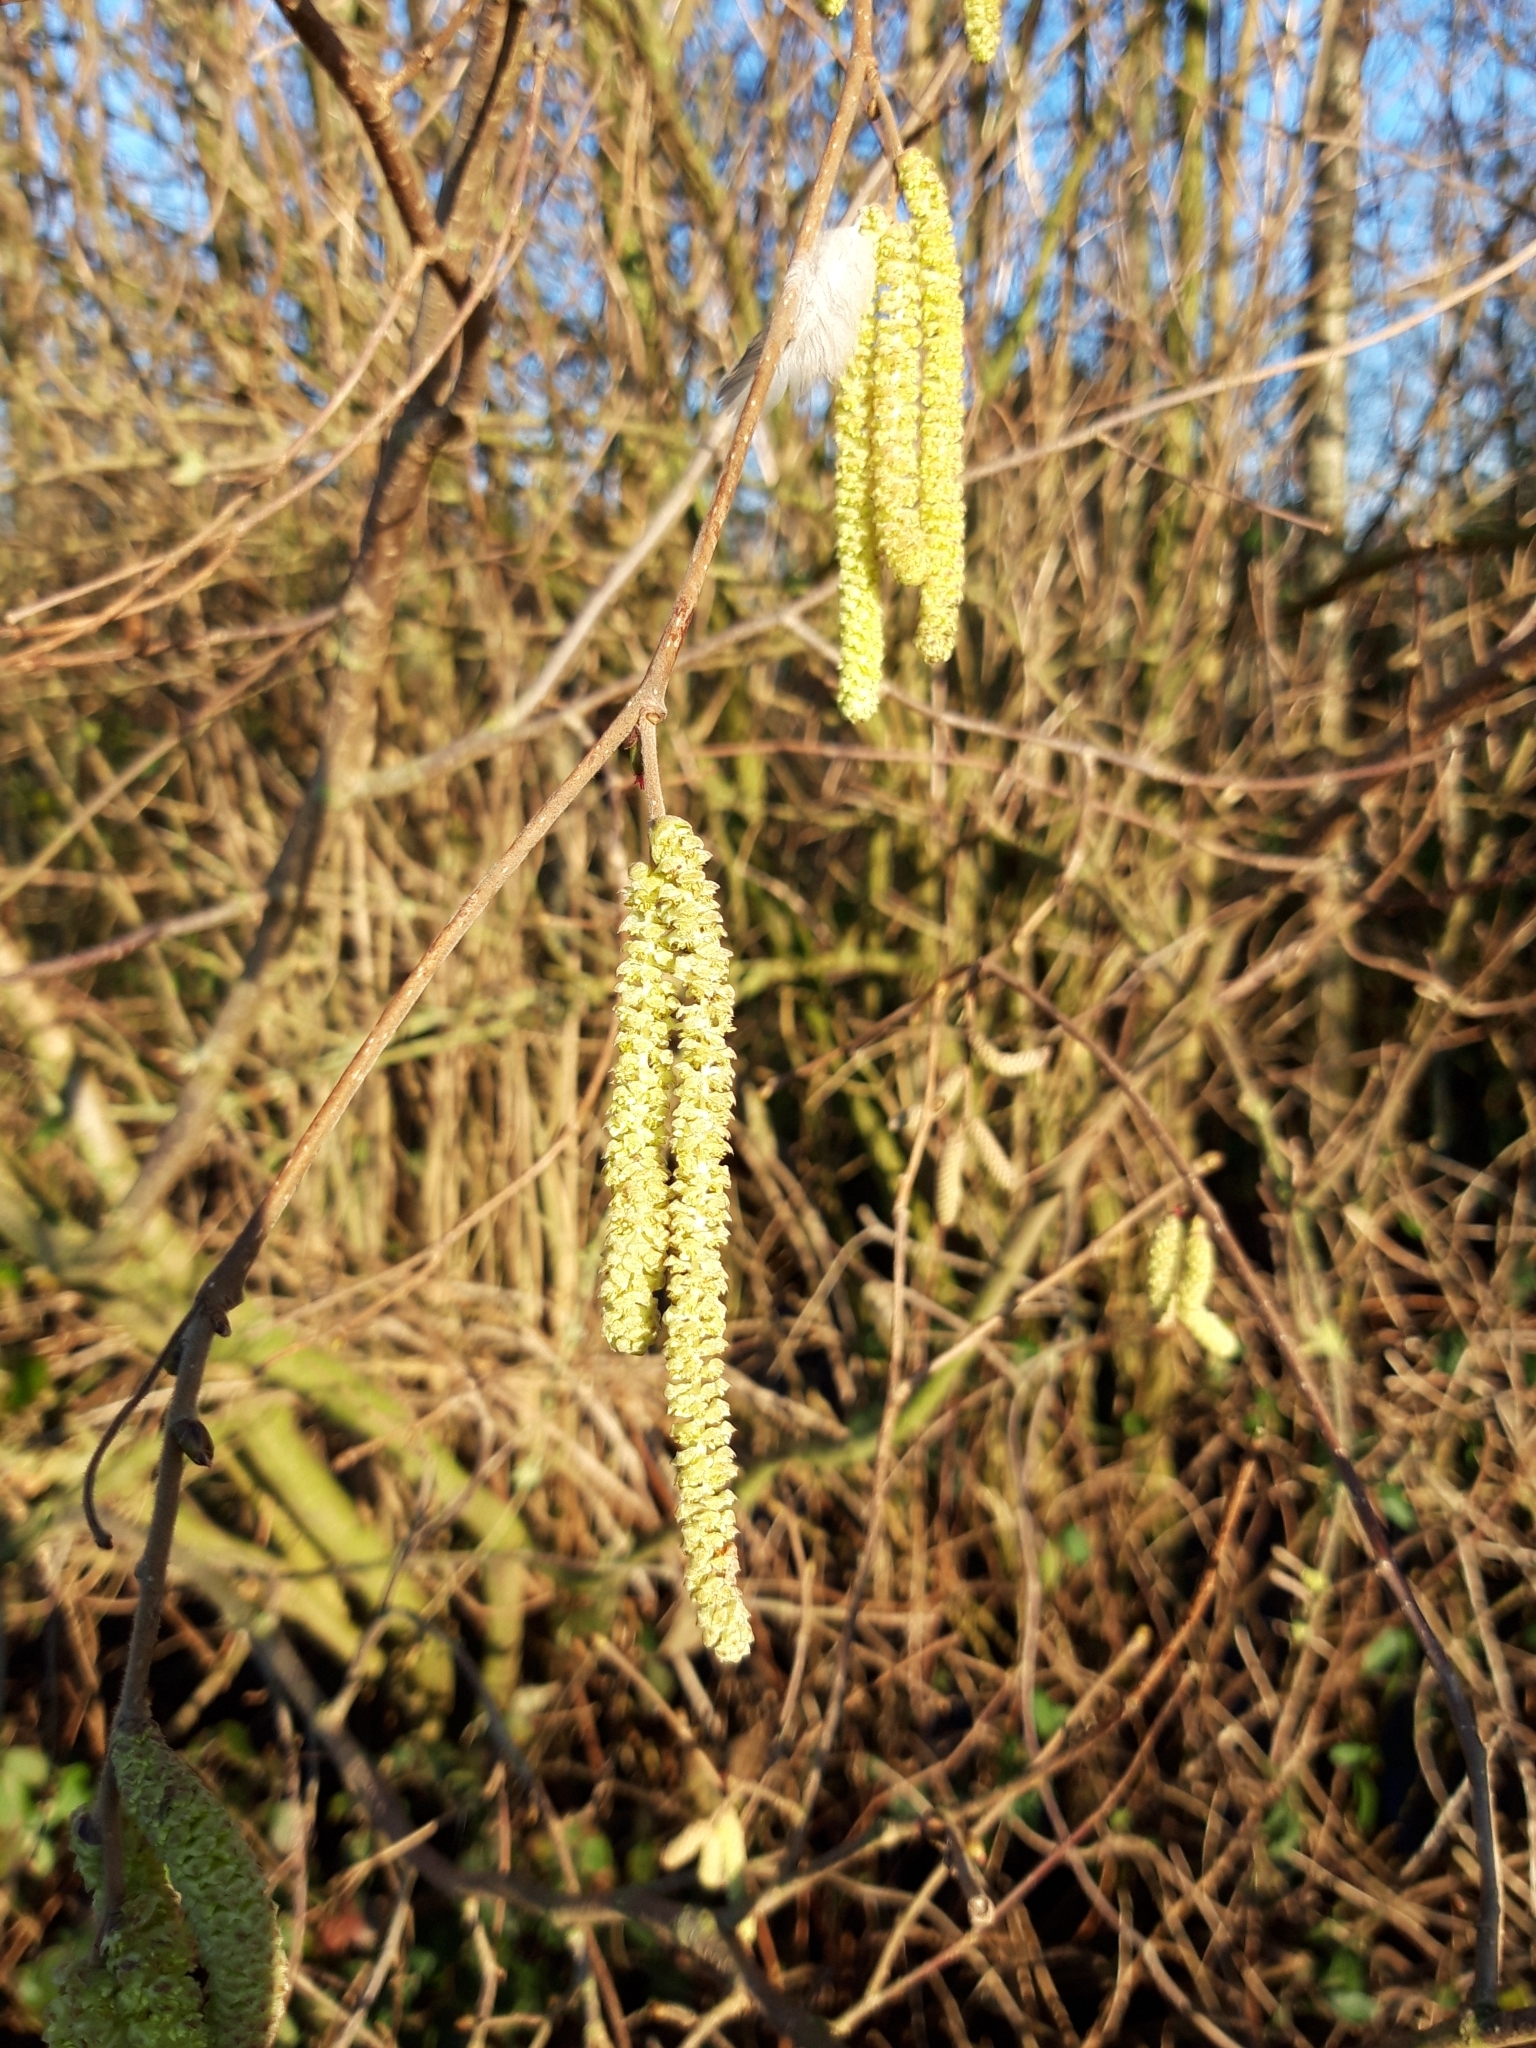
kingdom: Plantae
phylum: Tracheophyta
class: Magnoliopsida
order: Fagales
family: Betulaceae
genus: Corylus
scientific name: Corylus avellana
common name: European hazel
